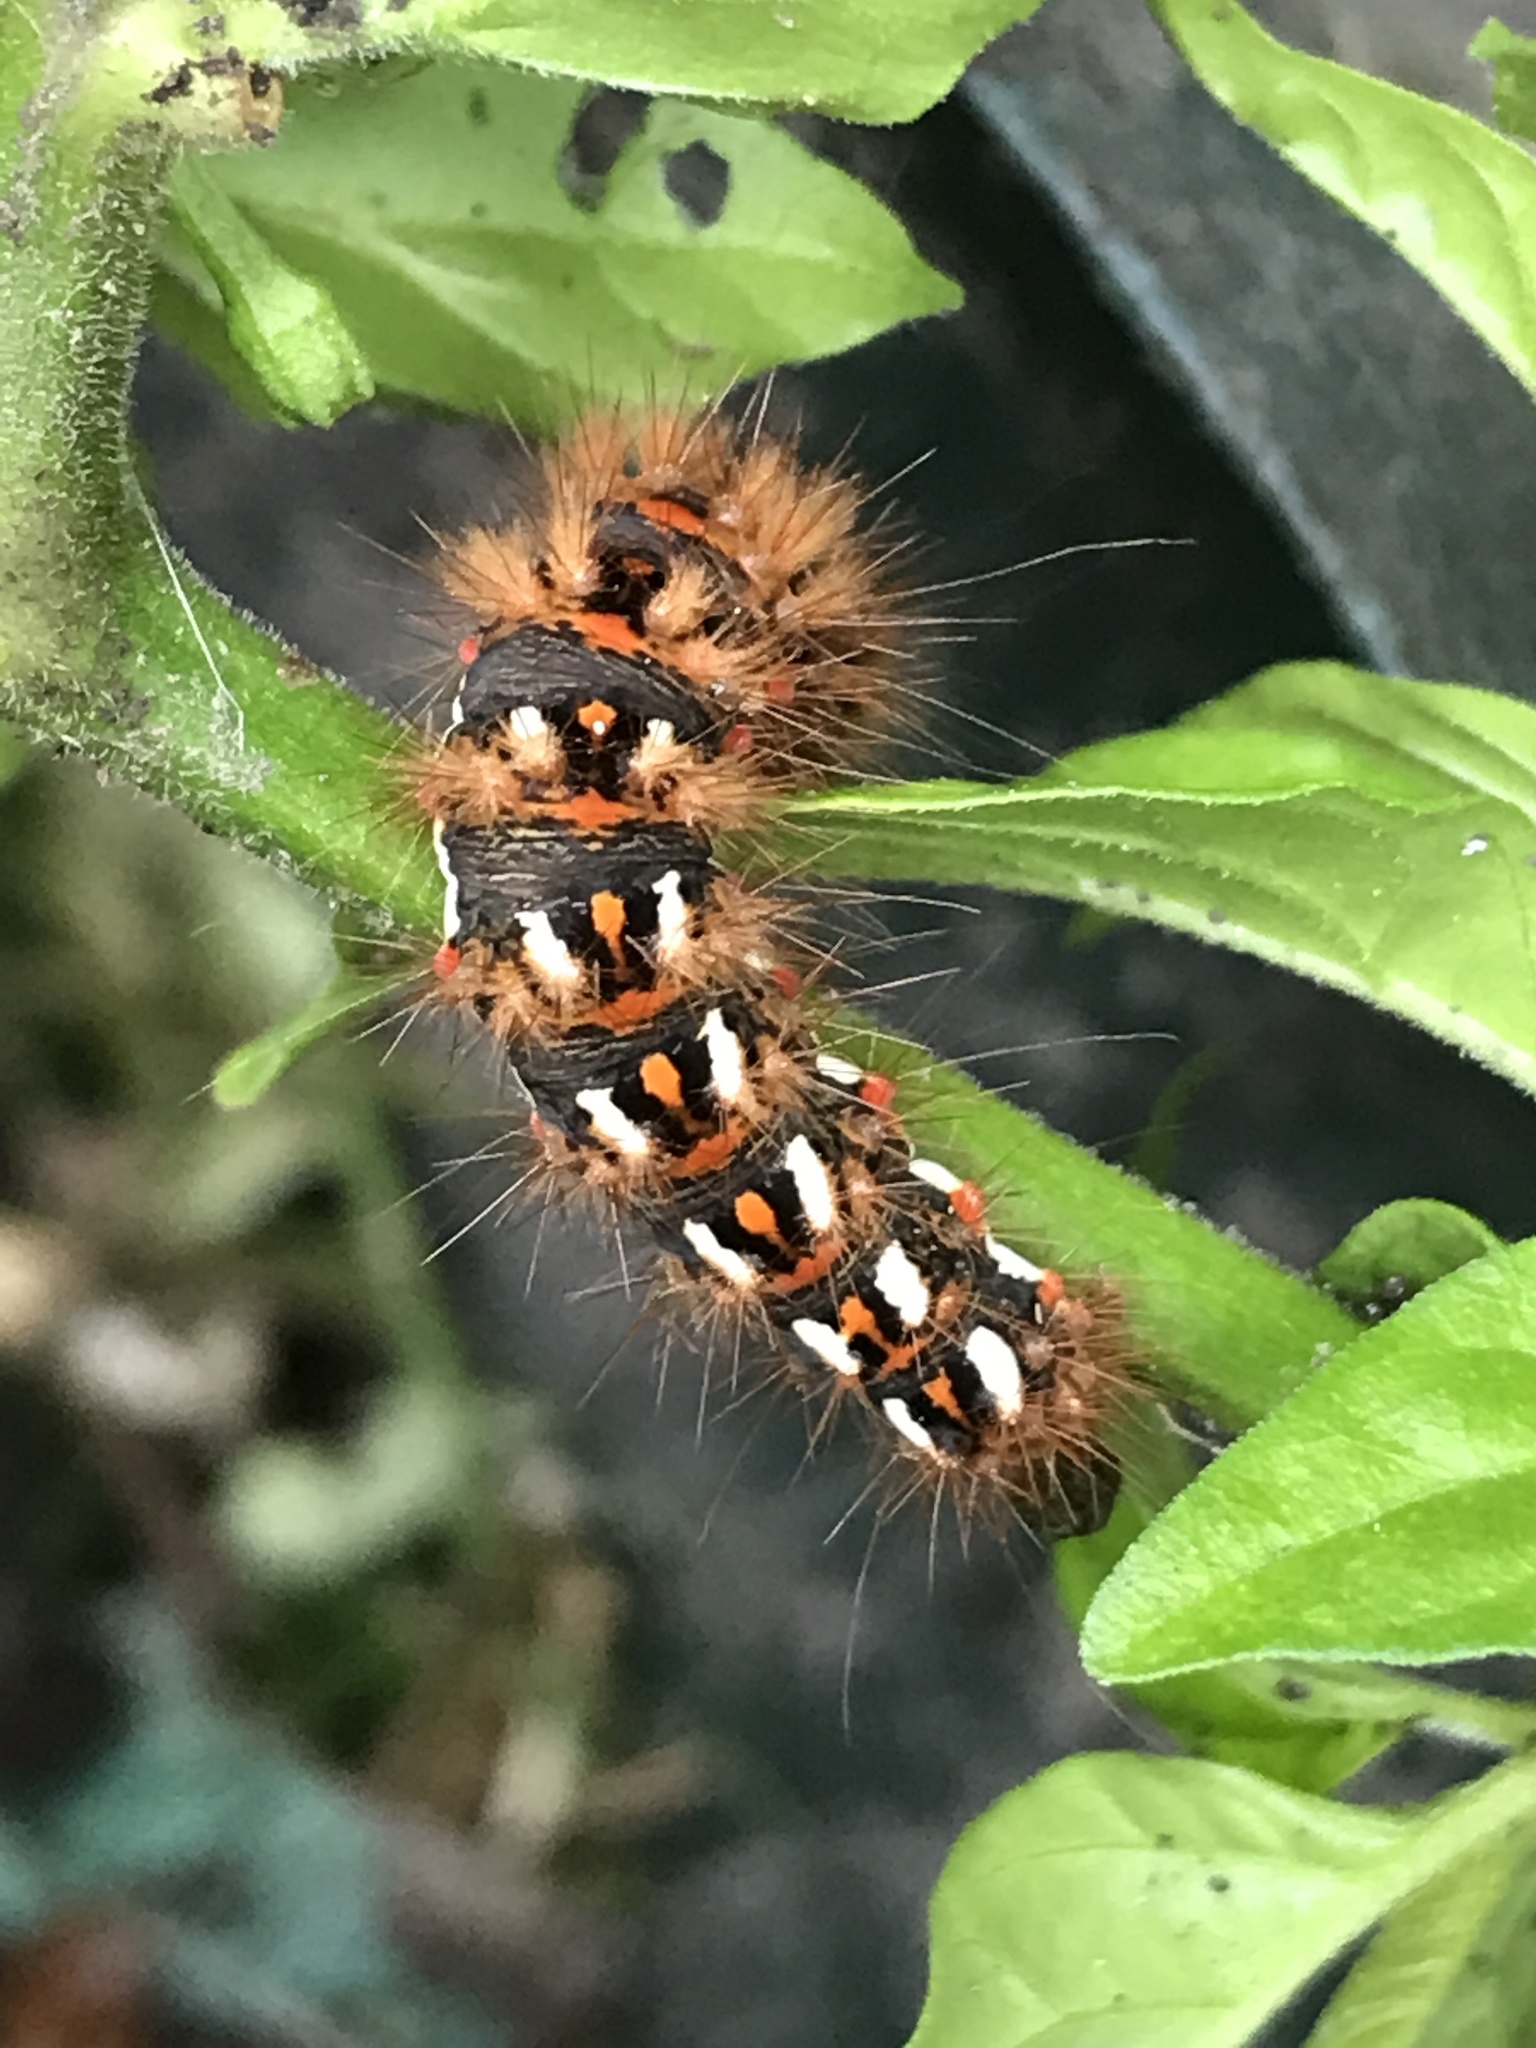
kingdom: Animalia
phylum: Arthropoda
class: Insecta
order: Lepidoptera
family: Noctuidae
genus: Acronicta
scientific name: Acronicta rumicis
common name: Knot grass
